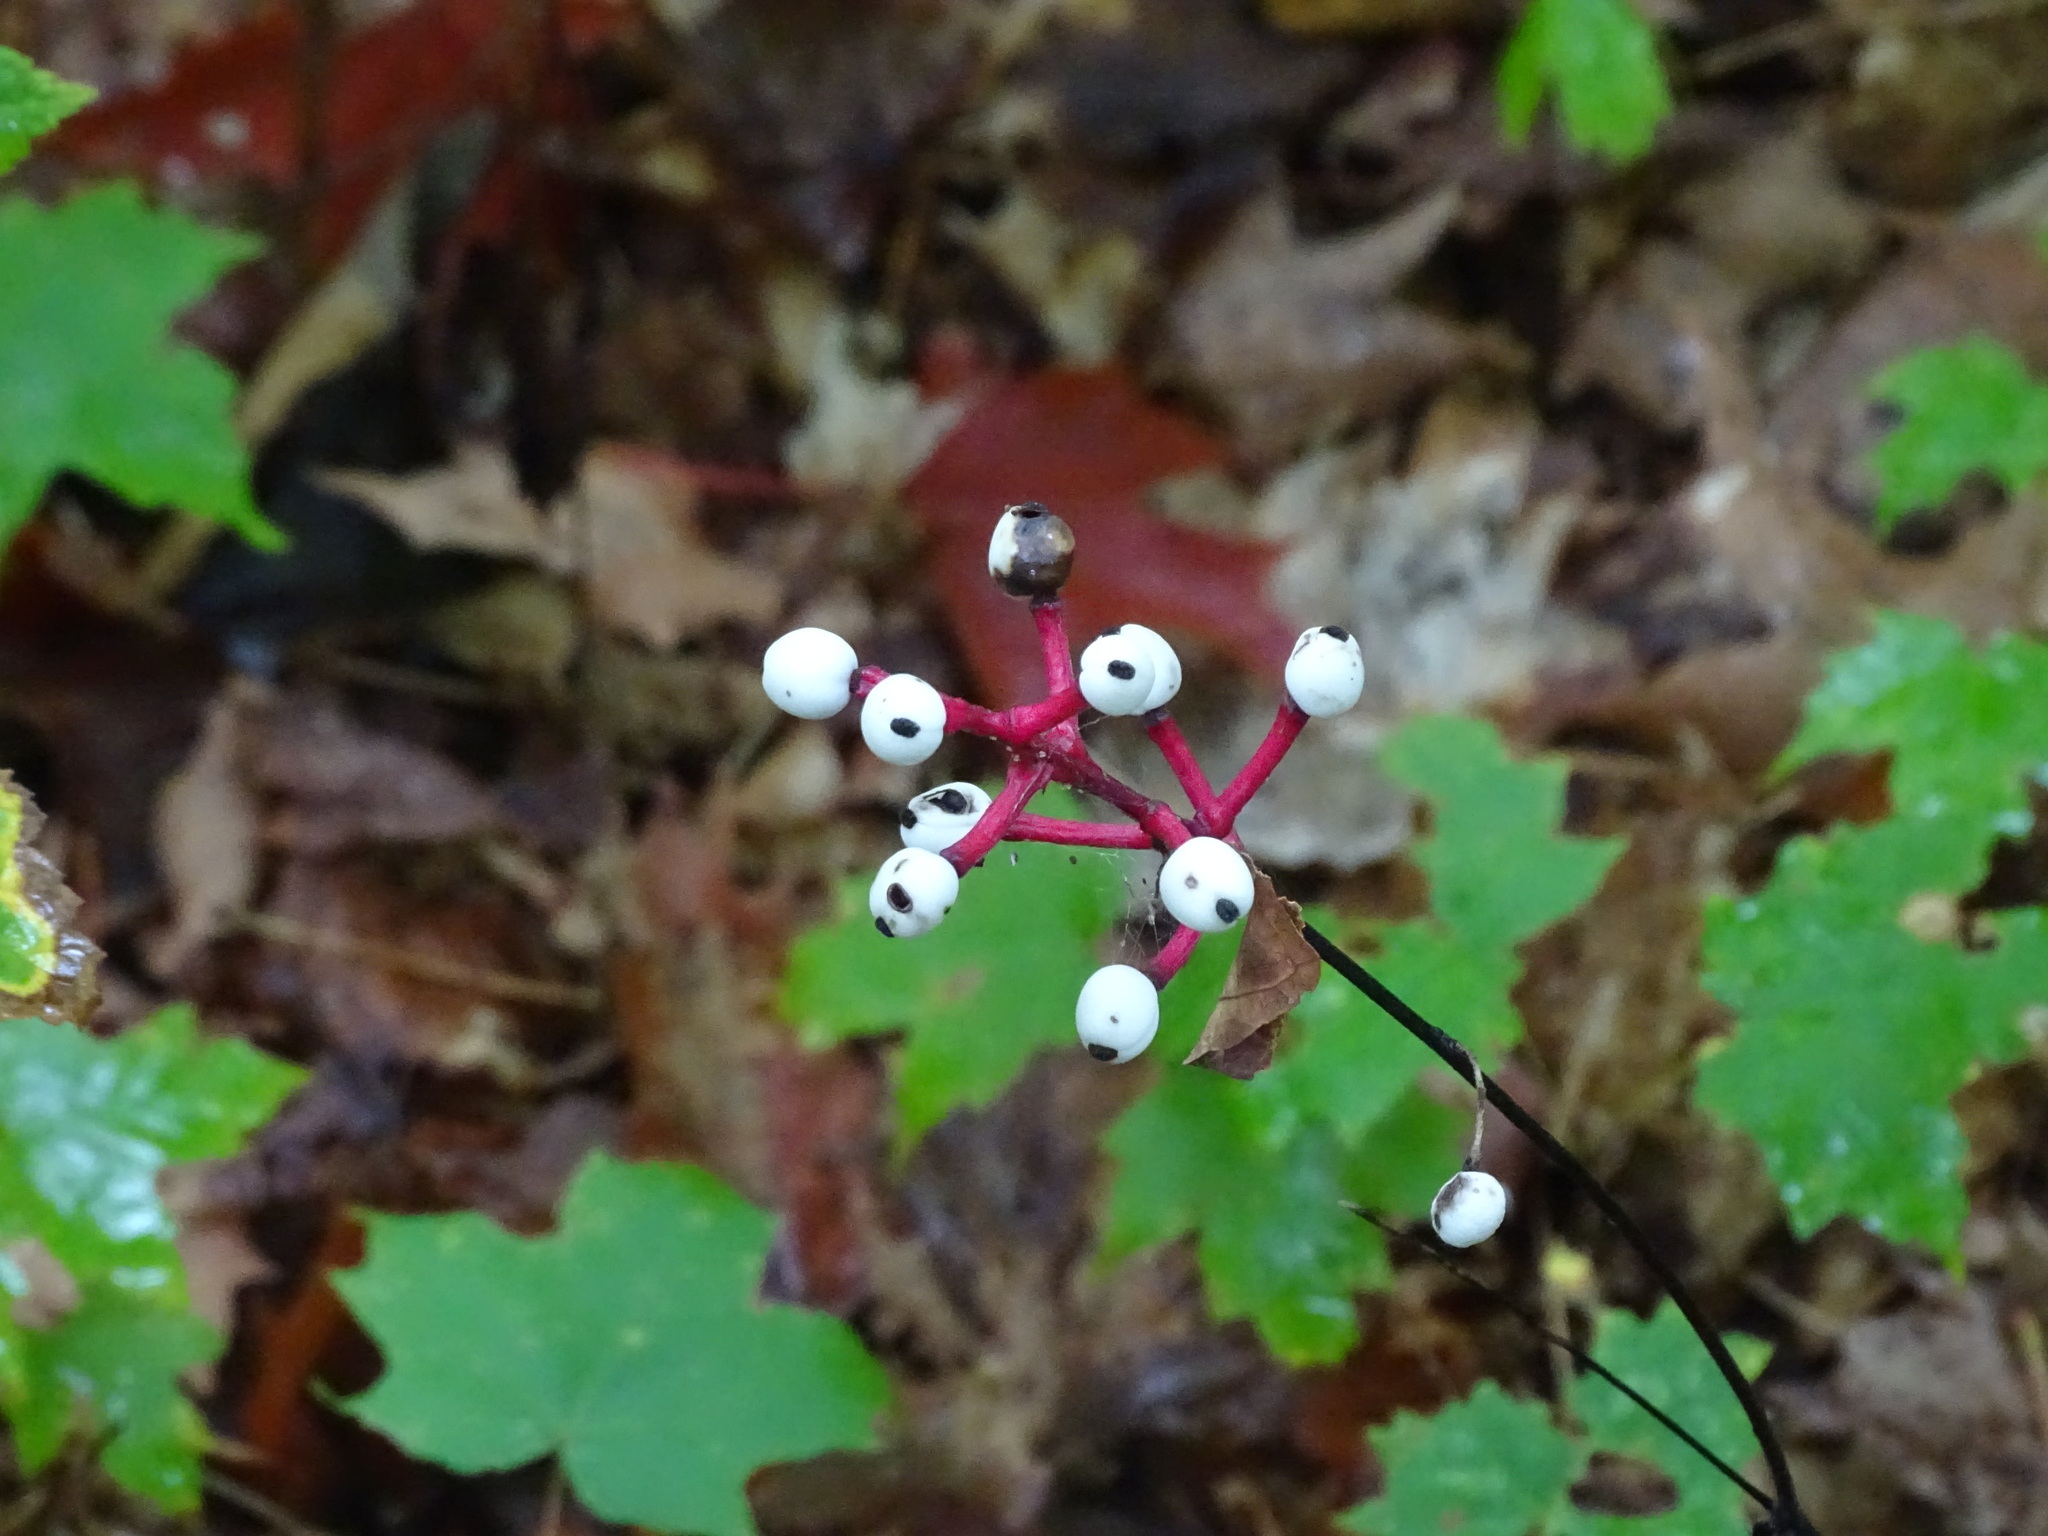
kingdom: Plantae
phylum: Tracheophyta
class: Magnoliopsida
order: Ranunculales
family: Ranunculaceae
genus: Actaea
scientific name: Actaea pachypoda
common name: Doll's-eyes
